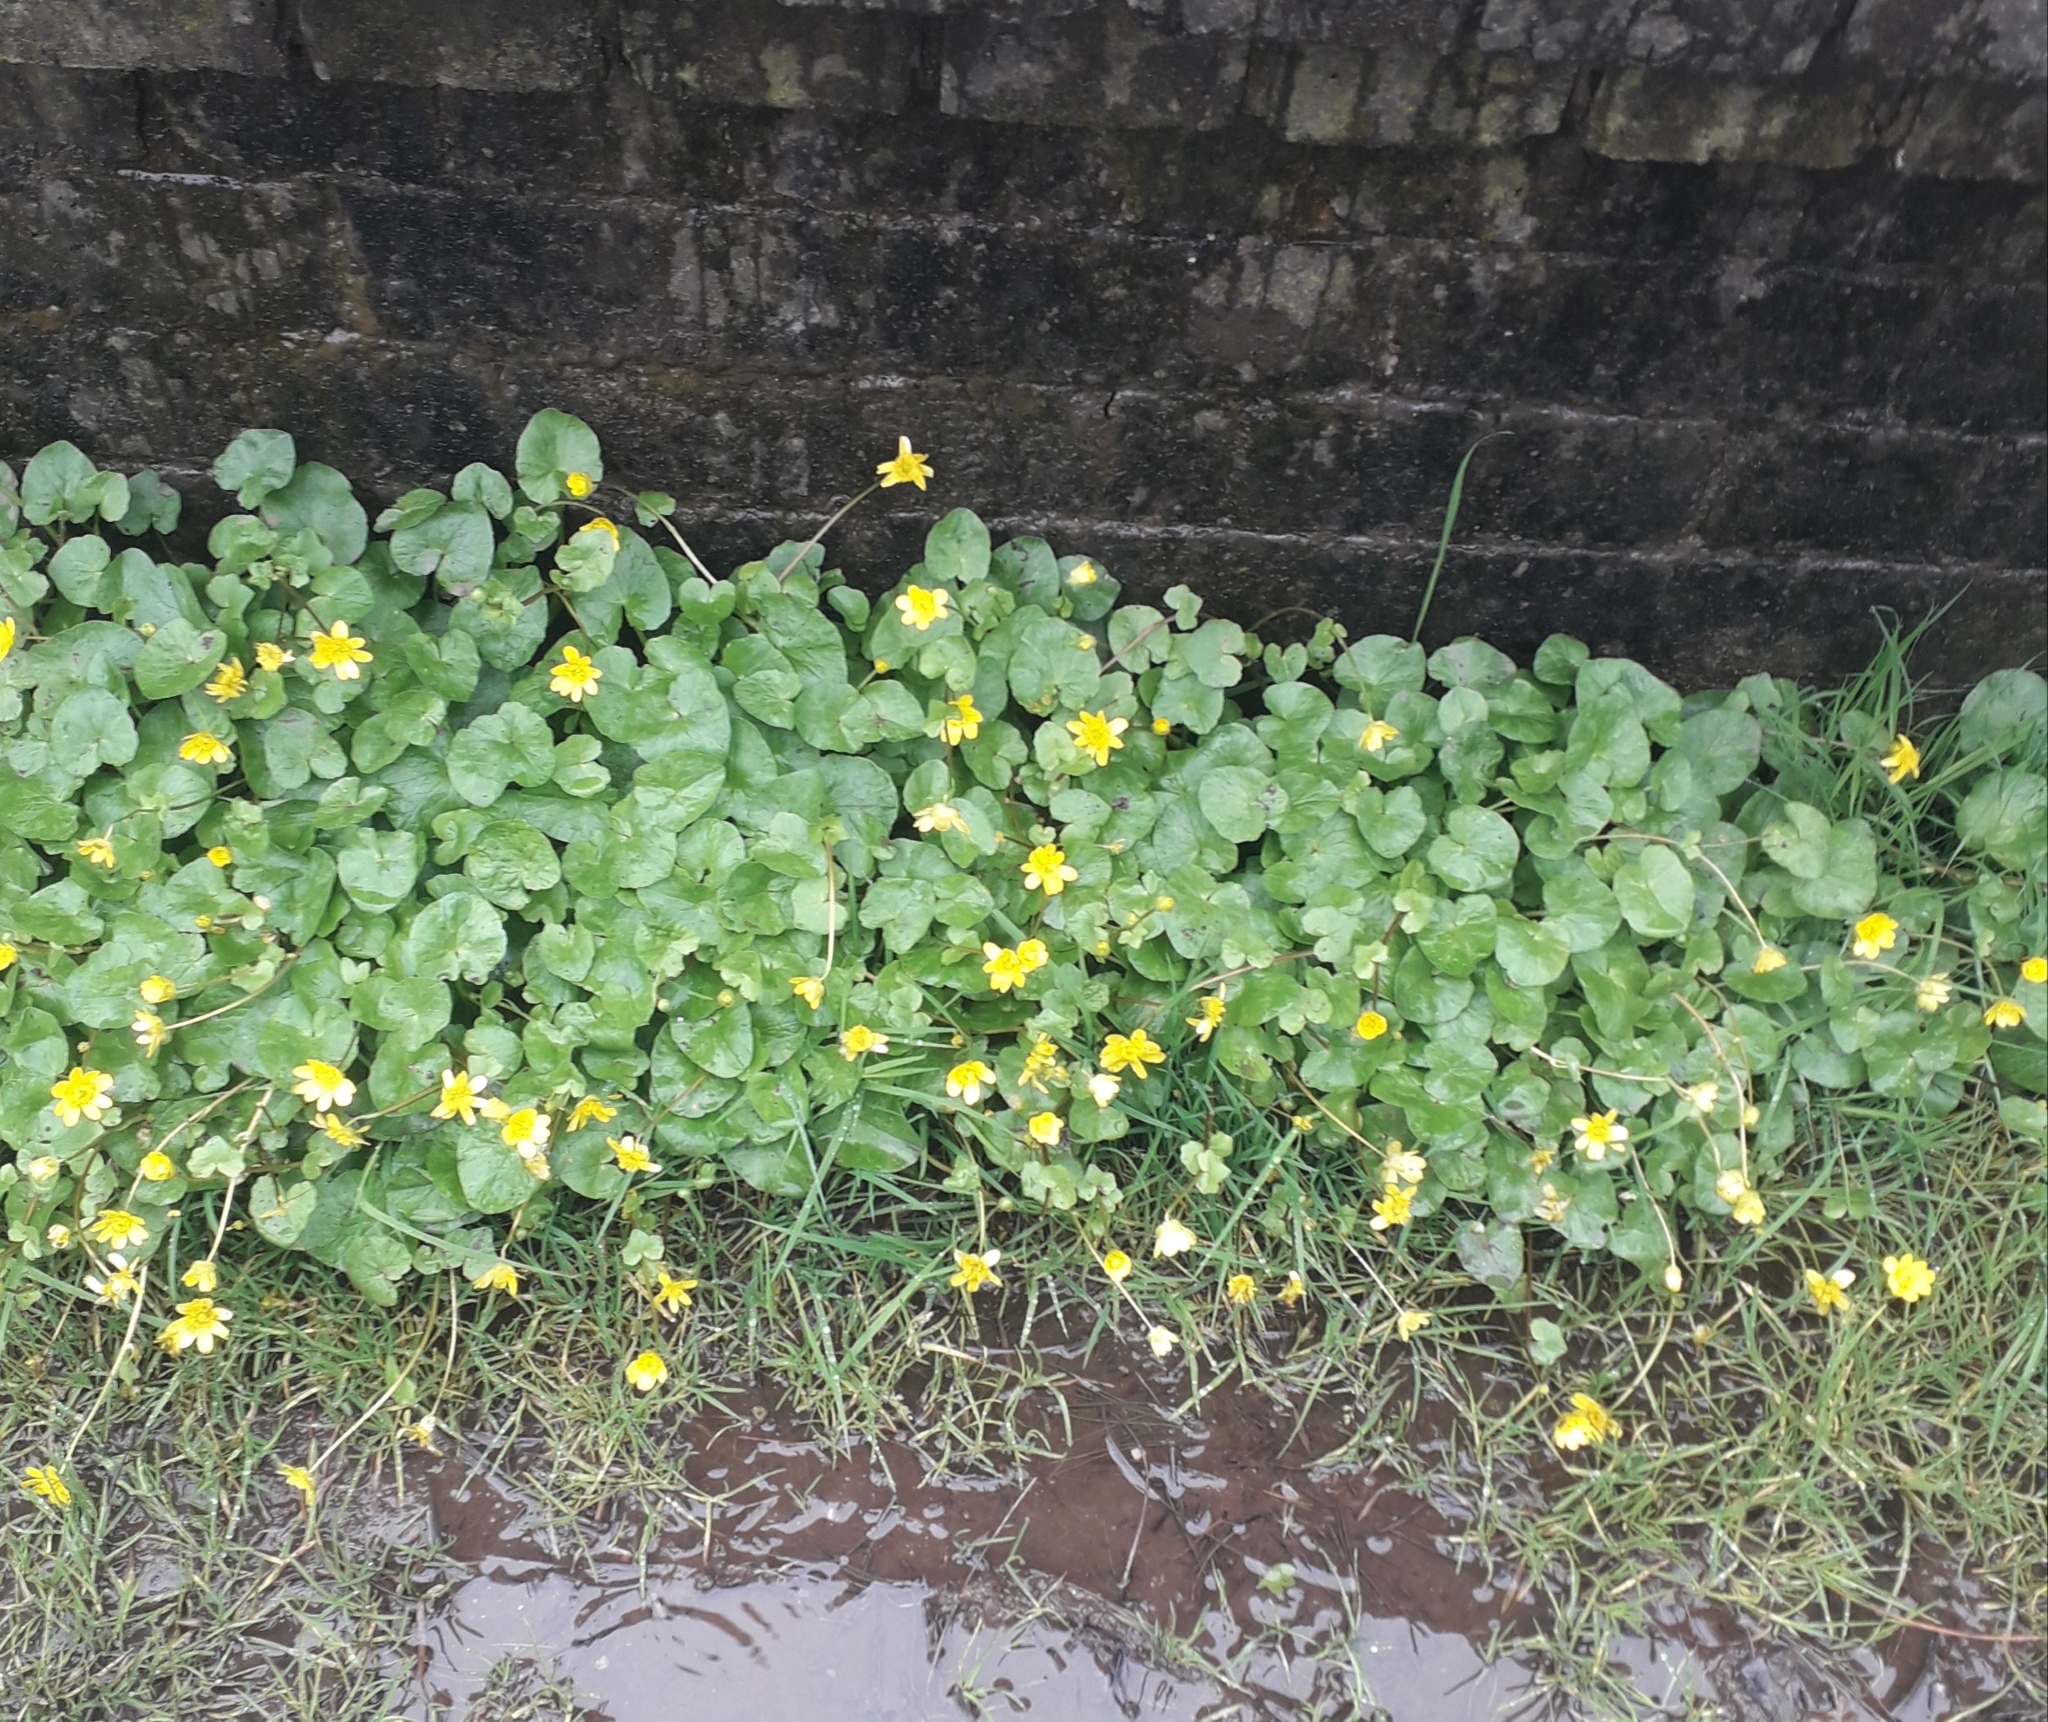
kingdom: Plantae
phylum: Tracheophyta
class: Magnoliopsida
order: Ranunculales
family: Ranunculaceae
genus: Ficaria
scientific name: Ficaria verna
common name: Lesser celandine
